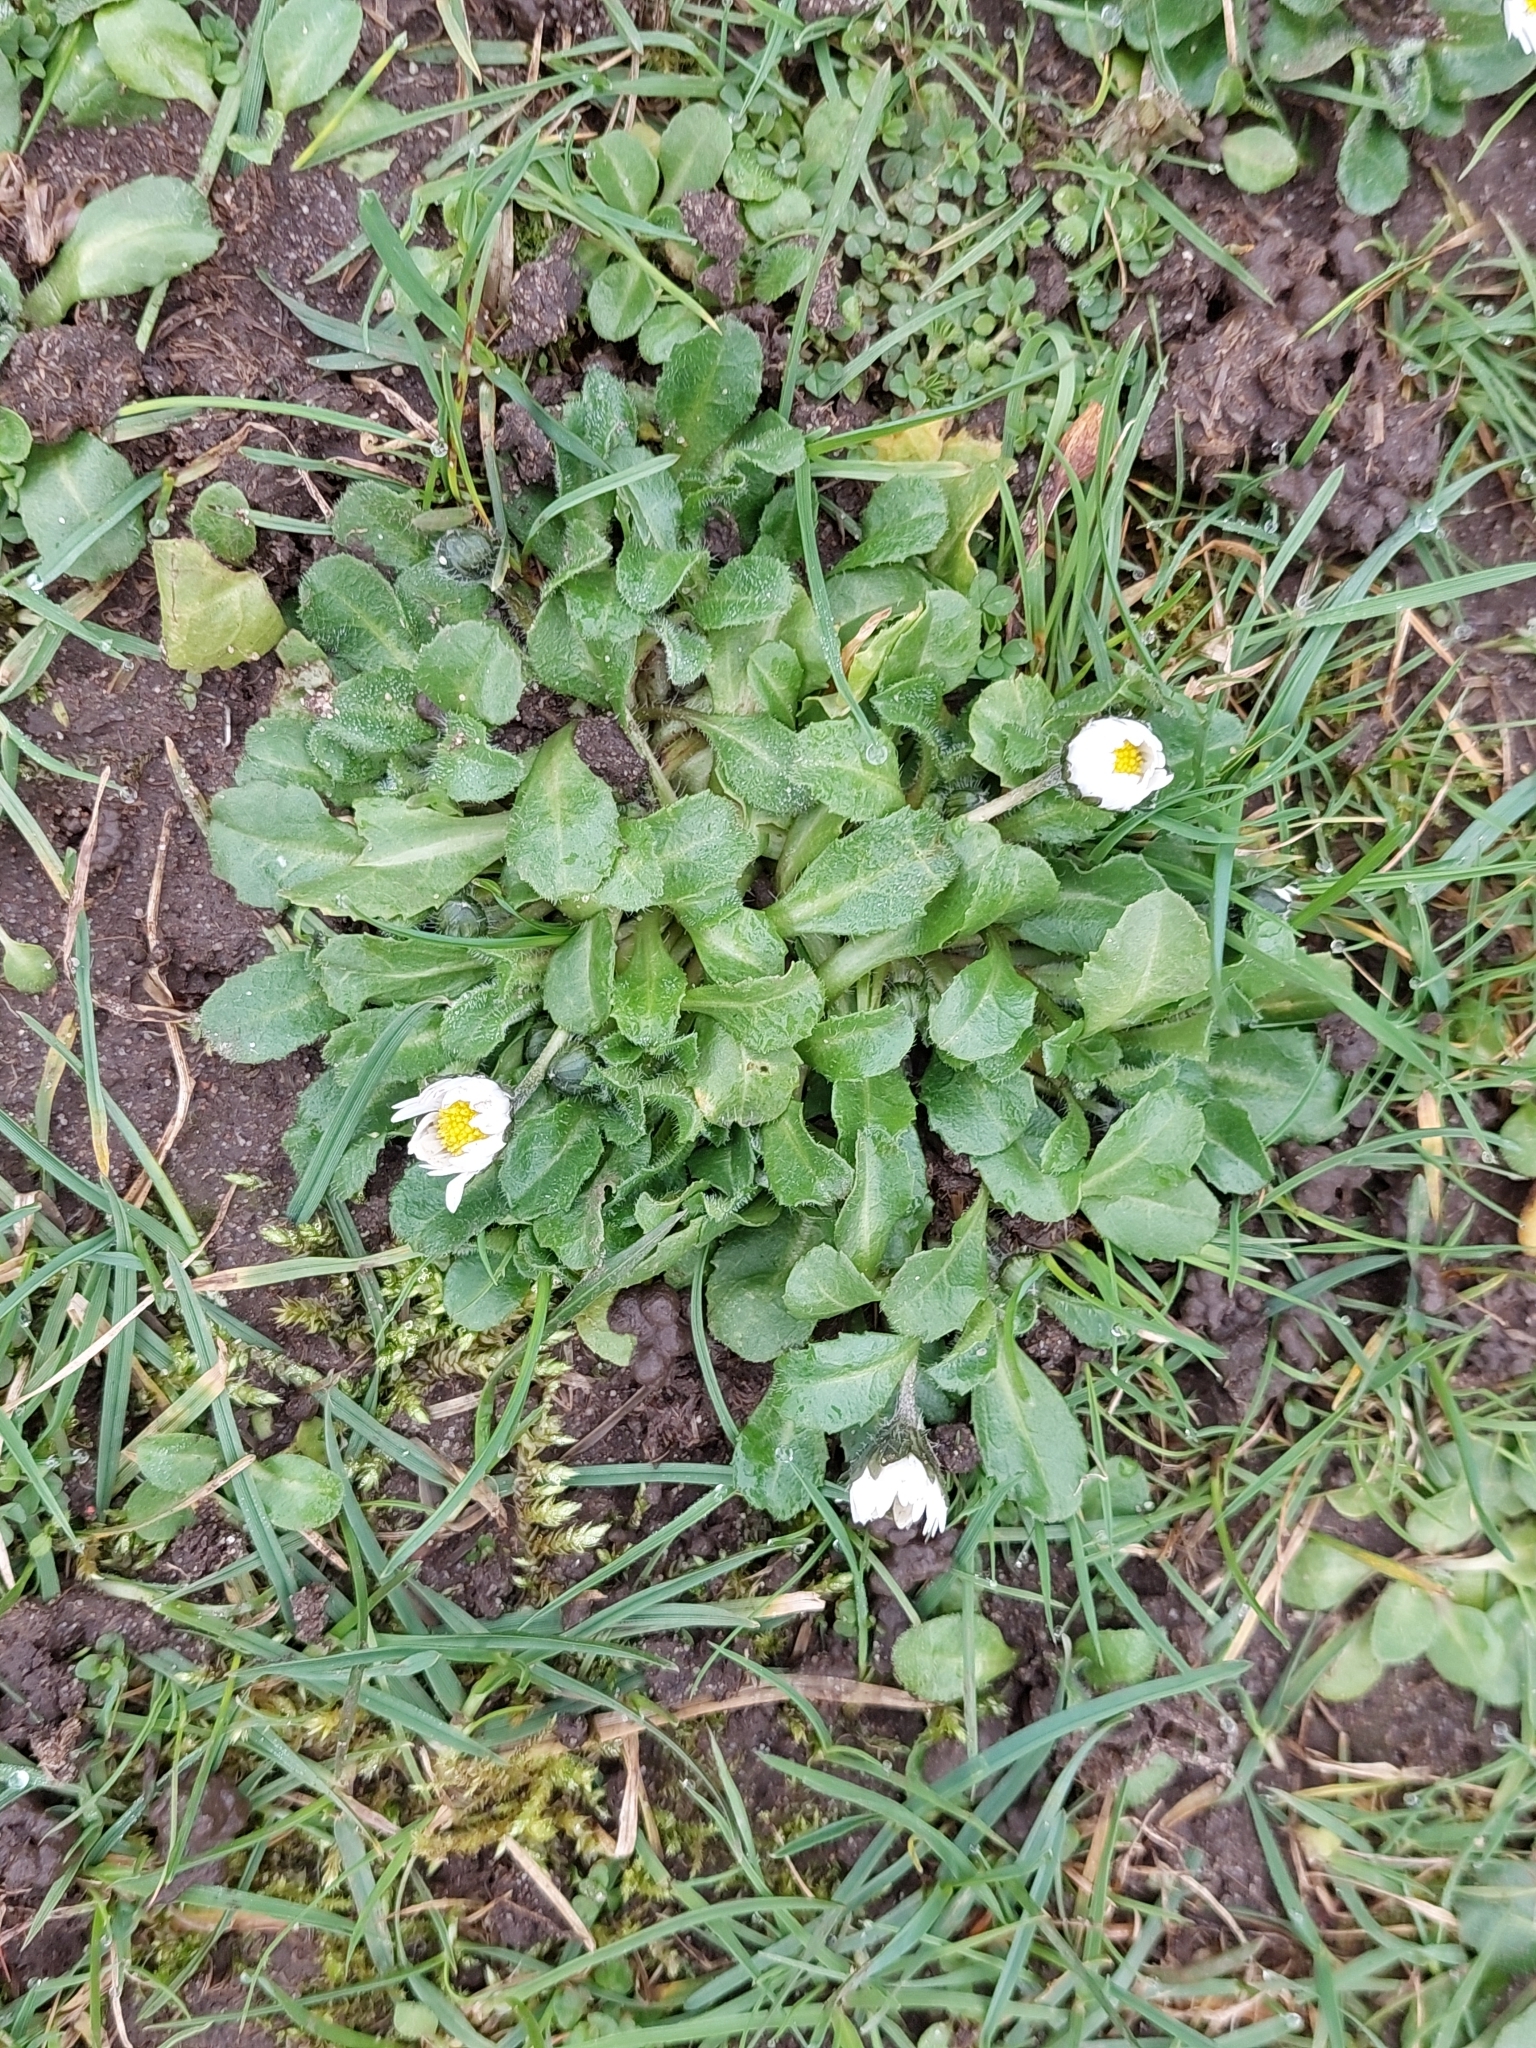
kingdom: Plantae
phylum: Tracheophyta
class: Magnoliopsida
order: Asterales
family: Asteraceae
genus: Bellis
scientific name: Bellis perennis
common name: Lawndaisy
